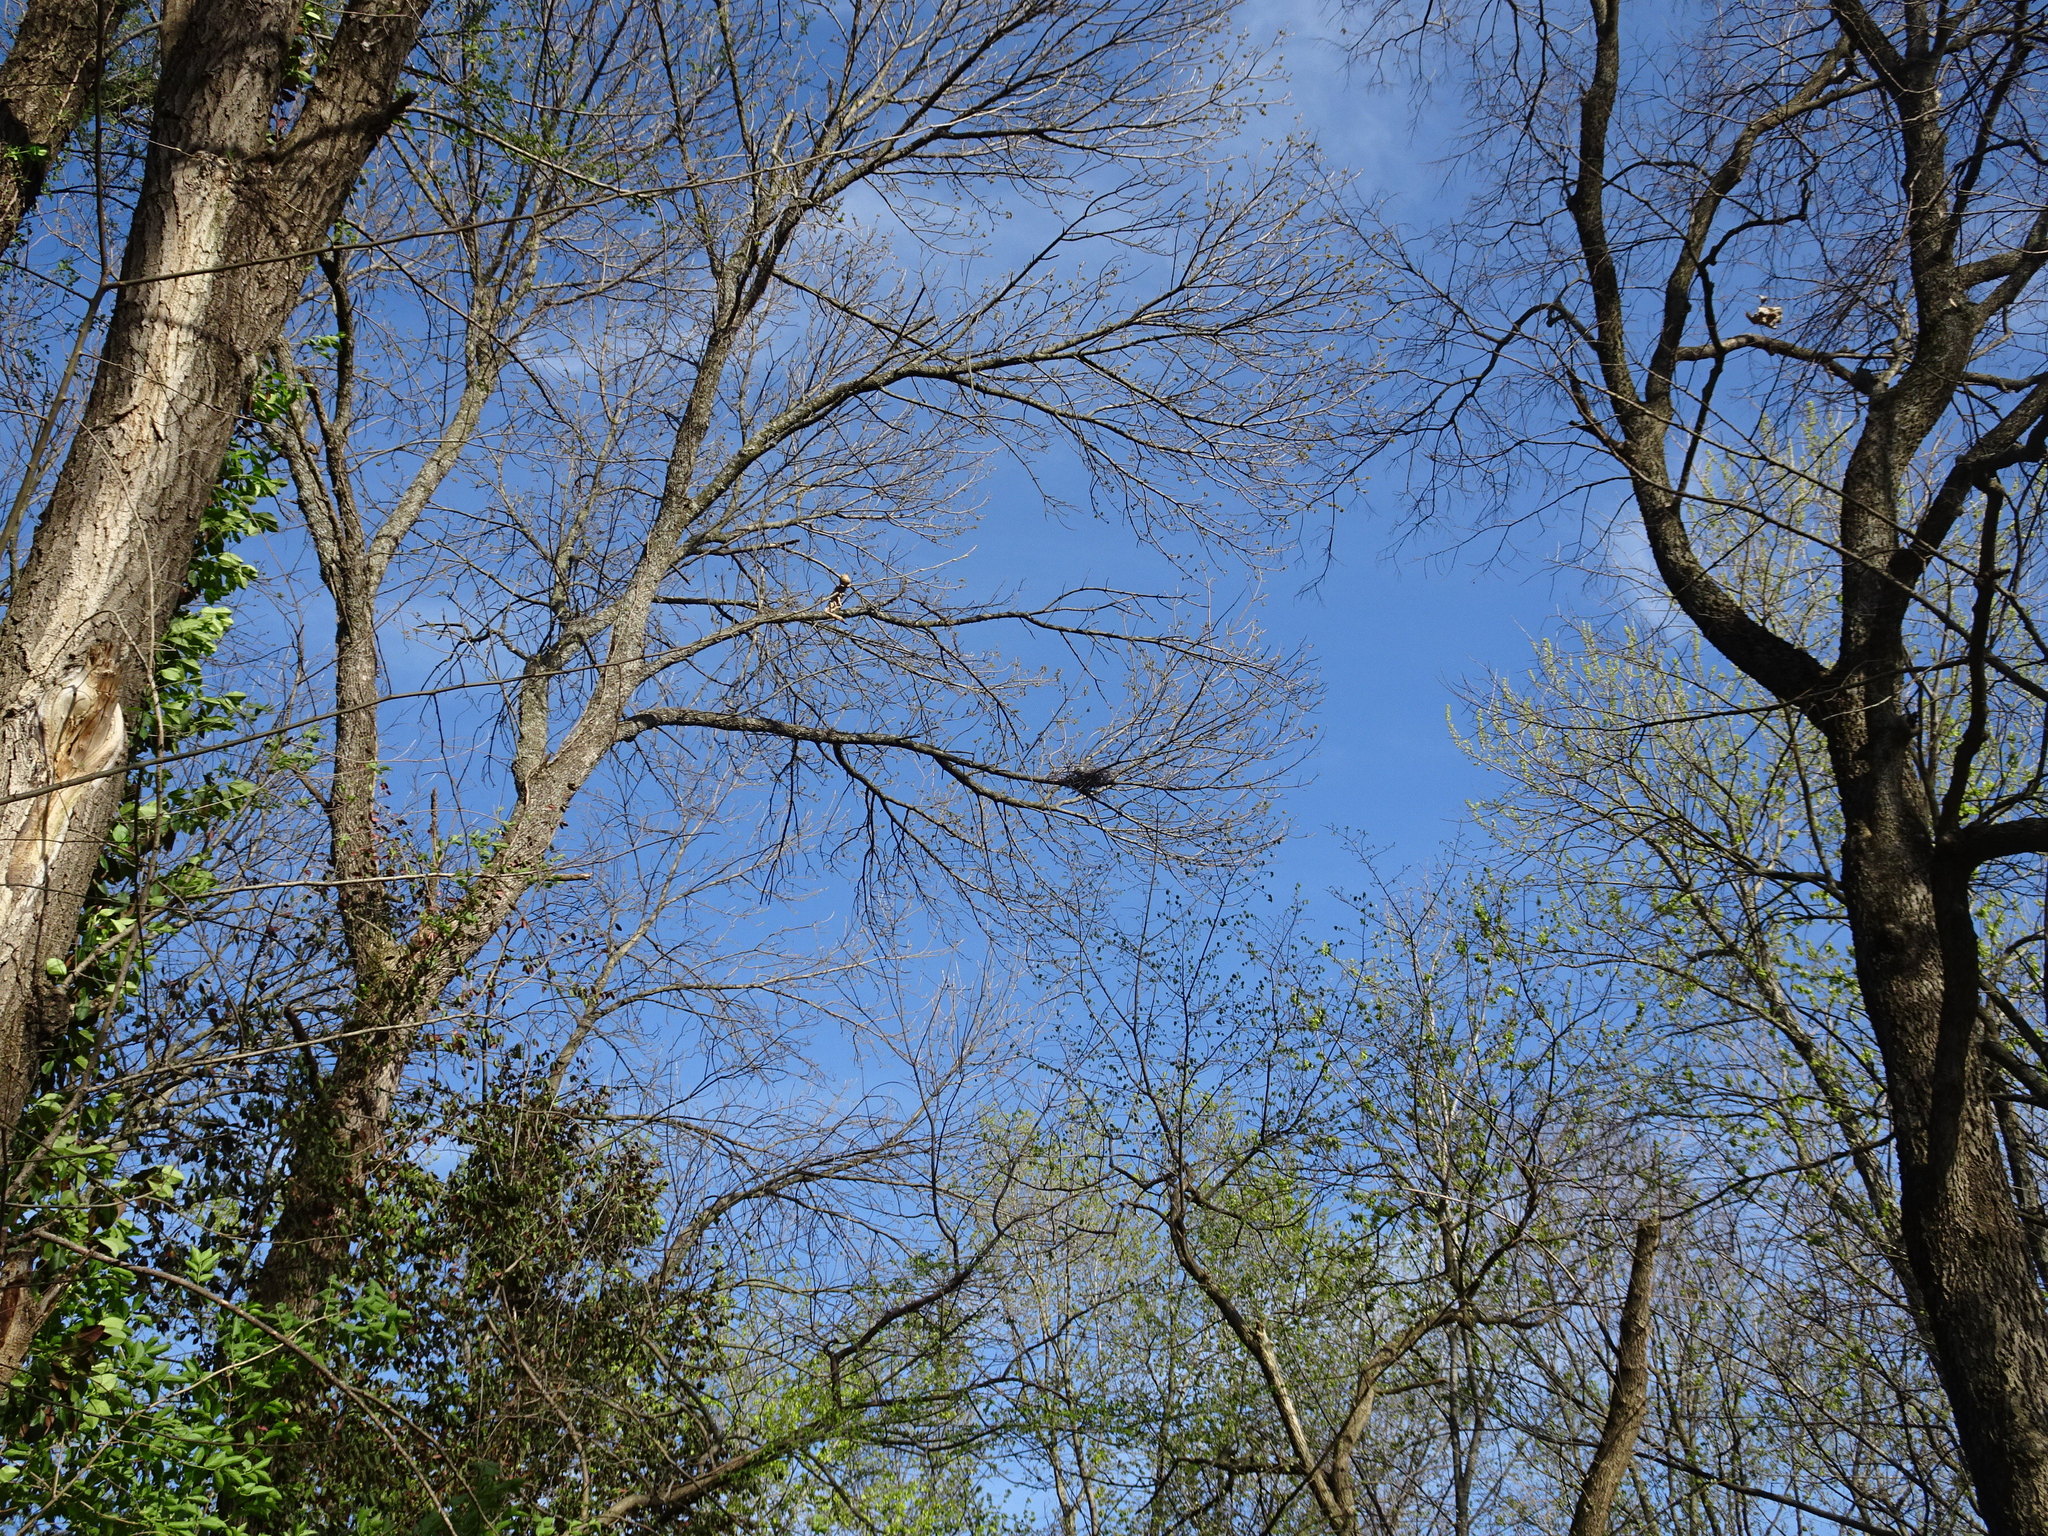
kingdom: Animalia
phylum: Chordata
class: Aves
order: Pelecaniformes
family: Ardeidae
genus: Nyctanassa
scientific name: Nyctanassa violacea
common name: Yellow-crowned night heron
